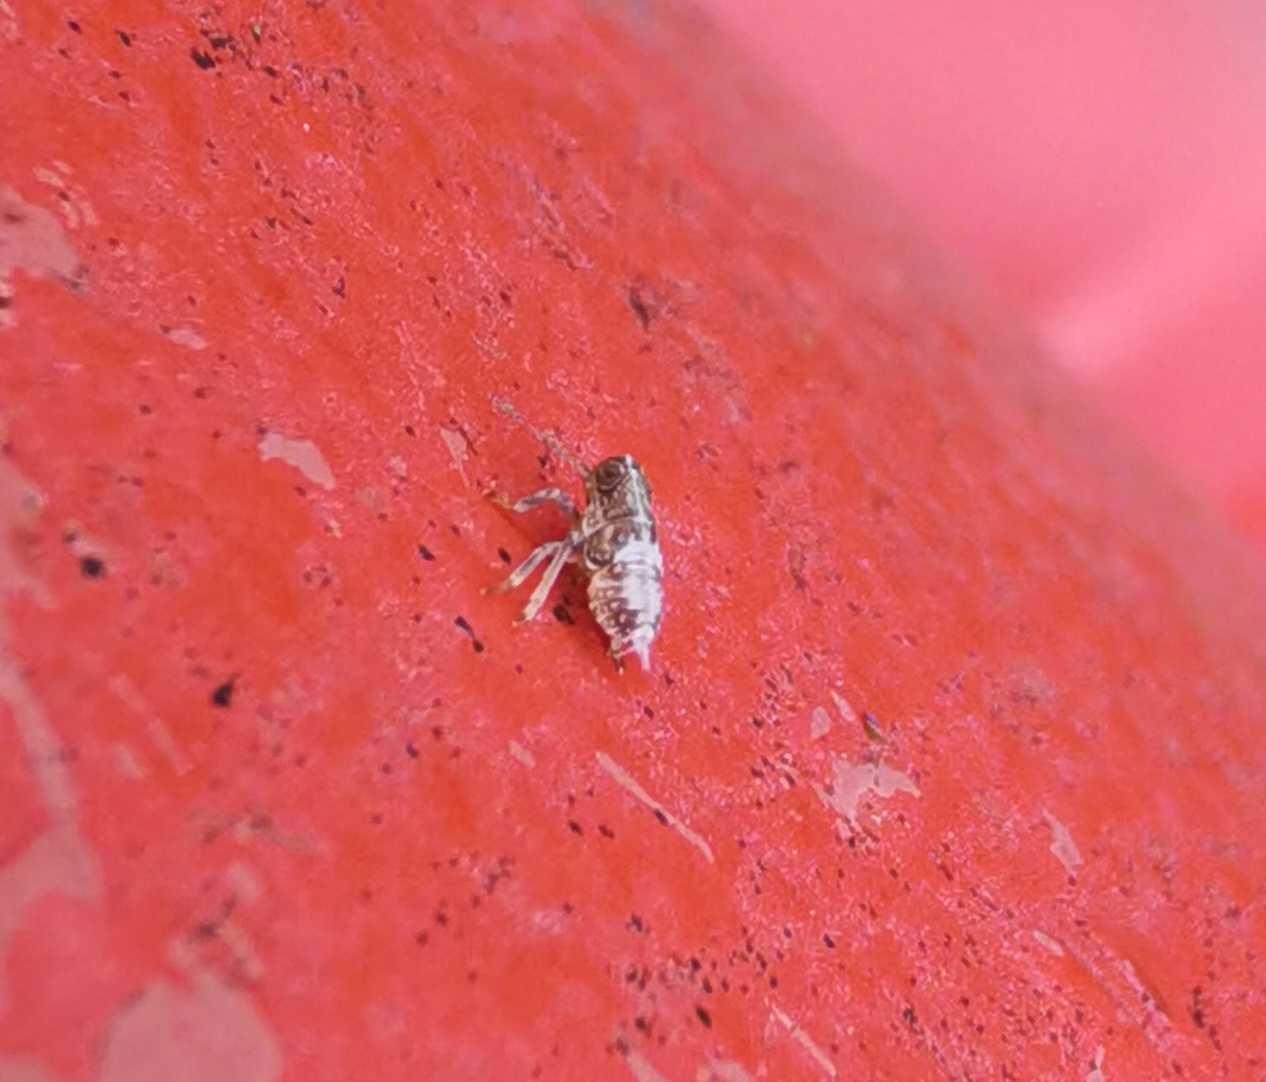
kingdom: Animalia
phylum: Arthropoda
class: Insecta
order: Hemiptera
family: Issidae
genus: Issus
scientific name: Issus
